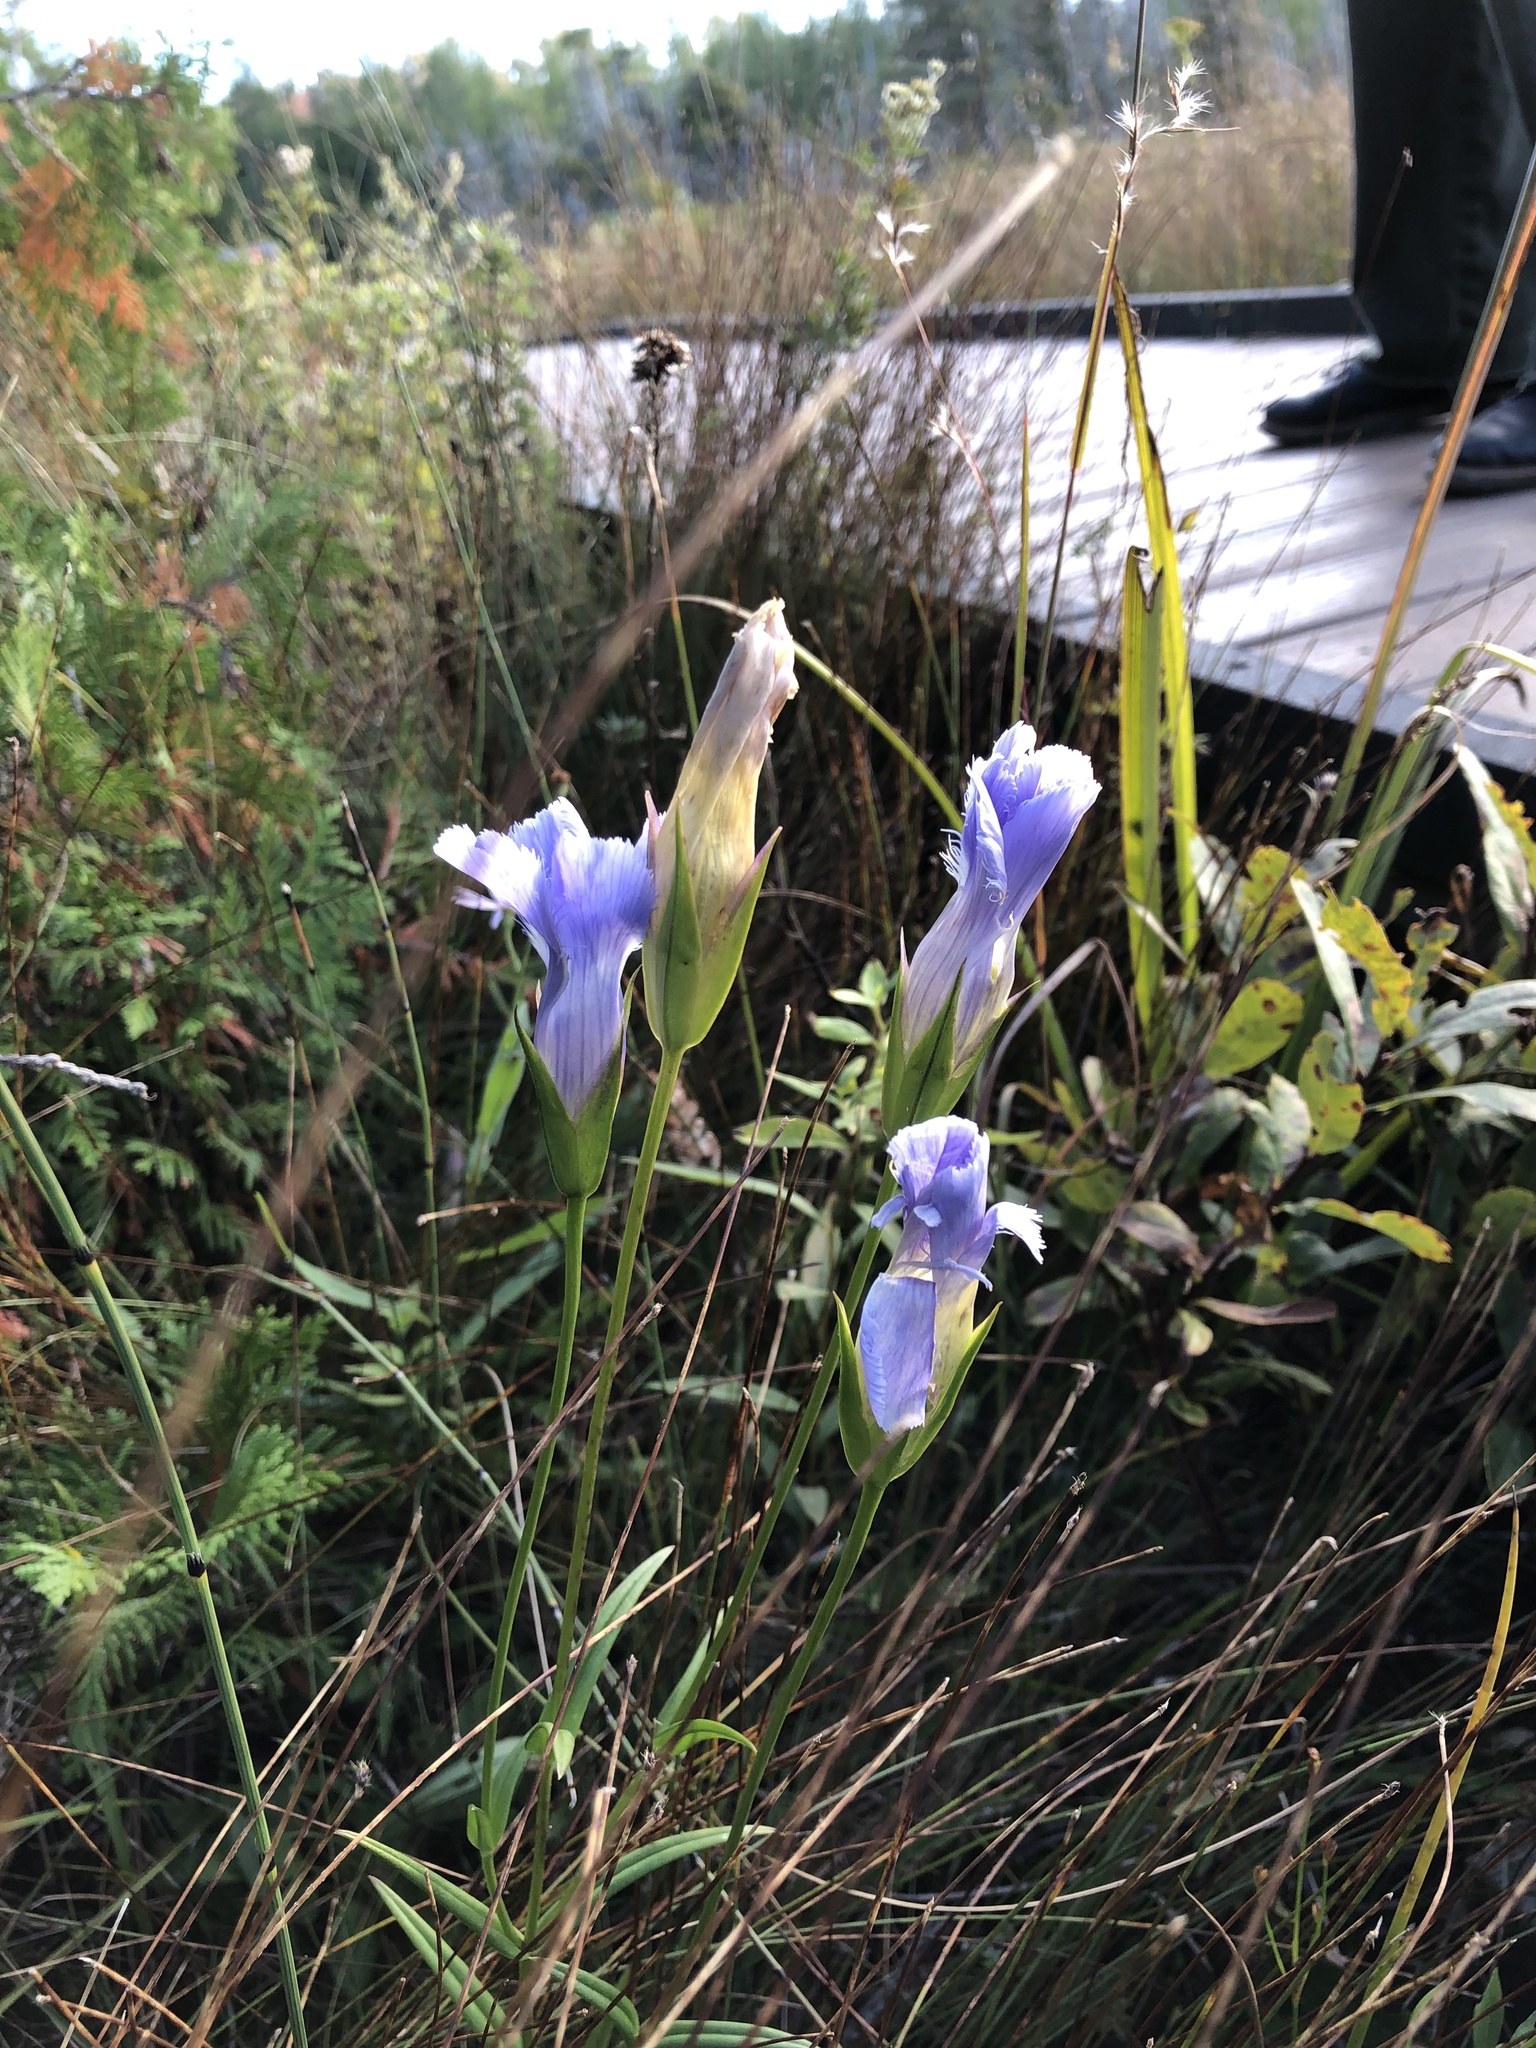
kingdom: Plantae
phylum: Tracheophyta
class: Magnoliopsida
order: Gentianales
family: Gentianaceae
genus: Gentianopsis
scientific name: Gentianopsis virgata
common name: Lesser fringed-gentian
